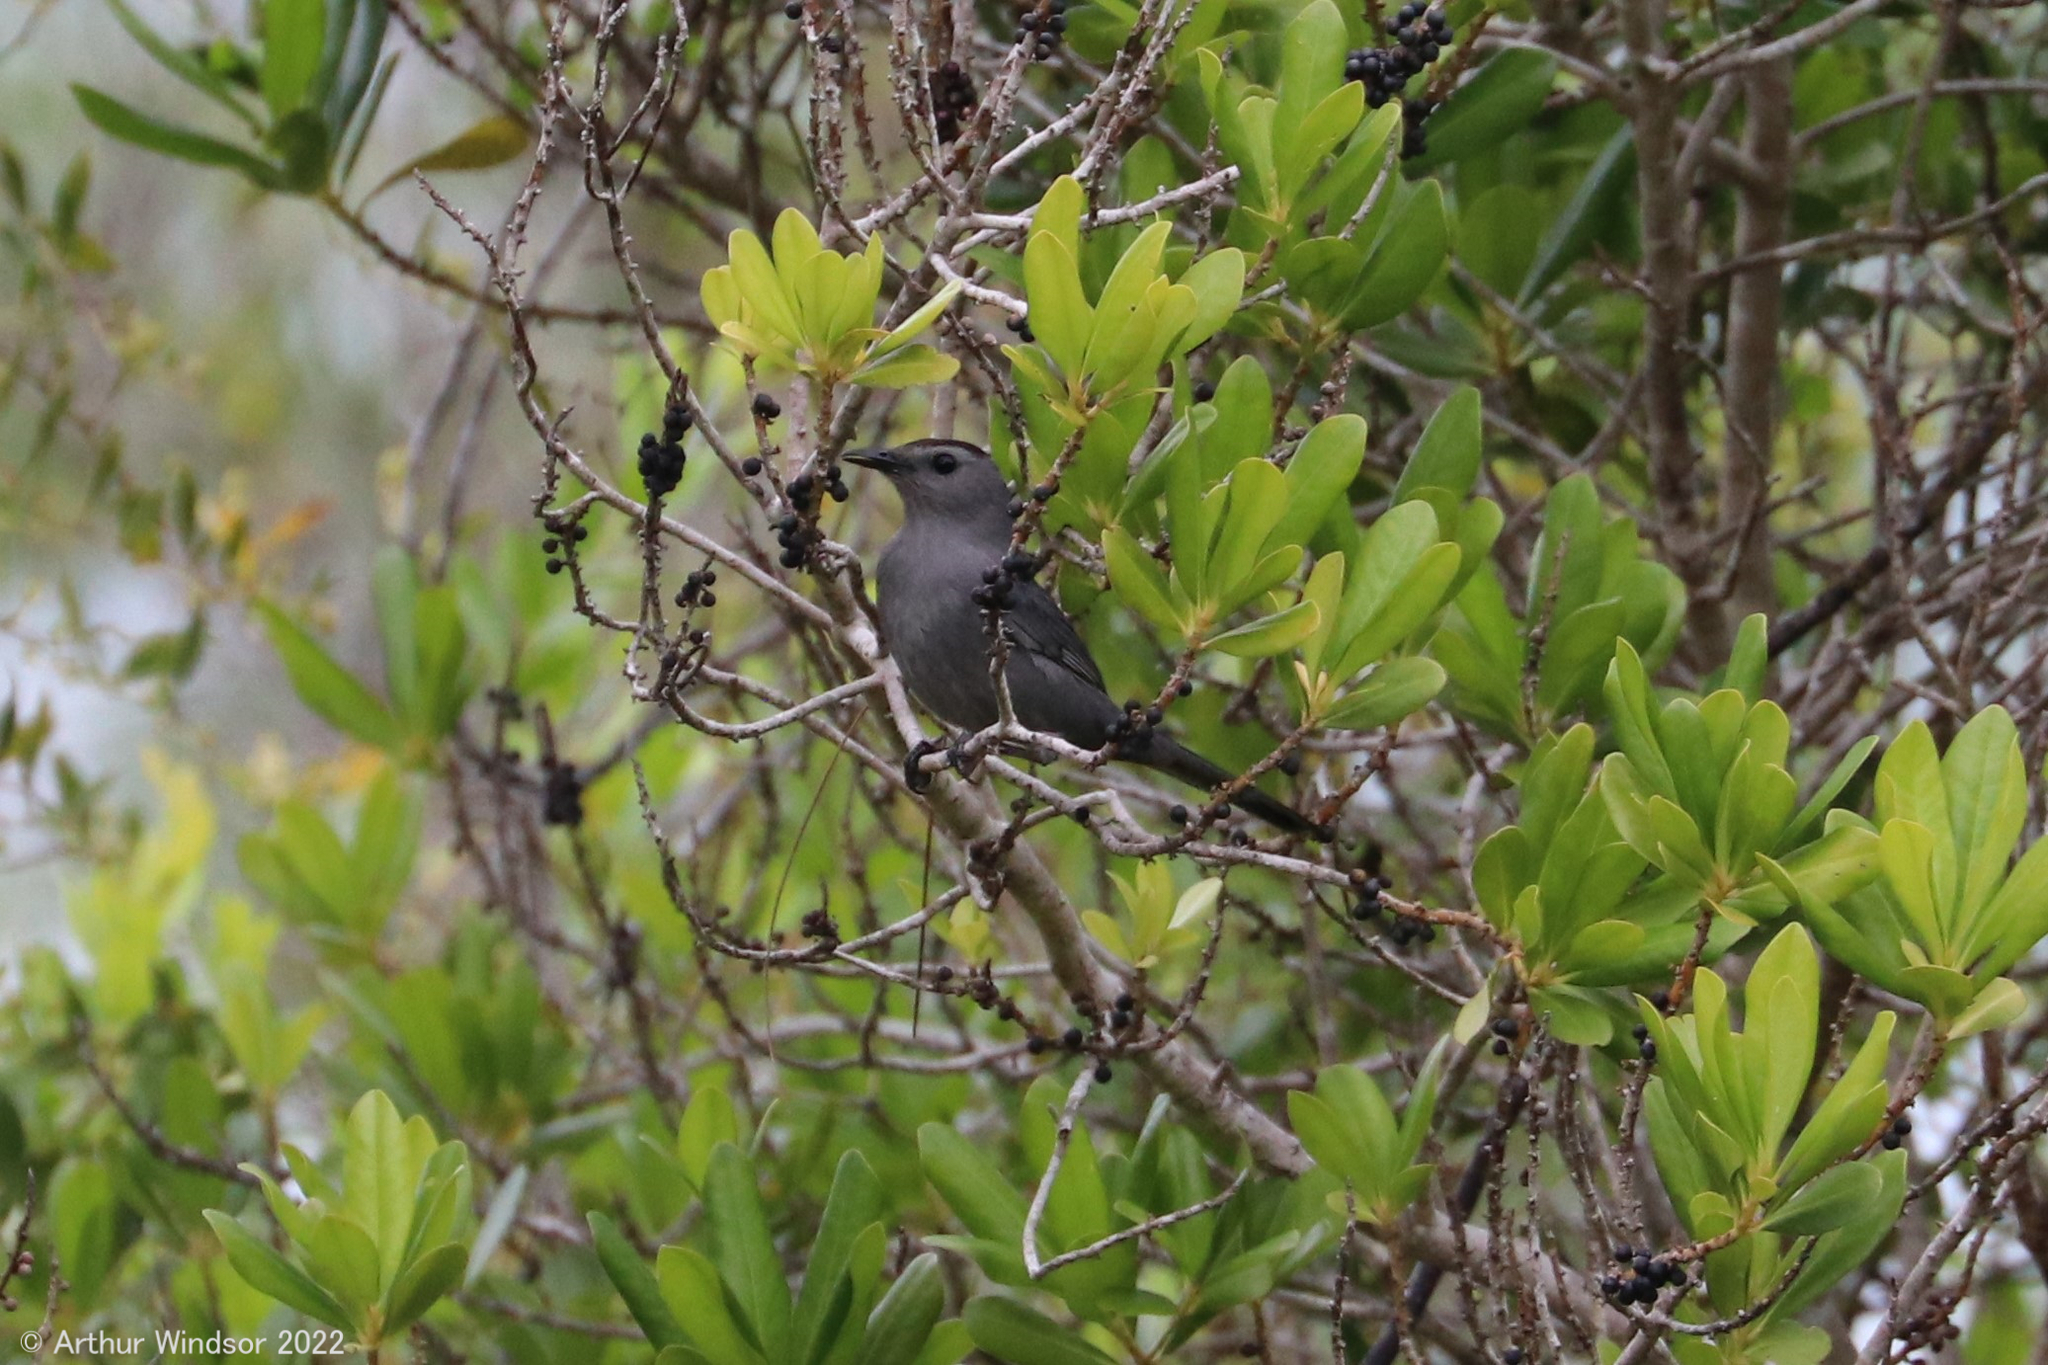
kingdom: Animalia
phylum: Chordata
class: Aves
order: Passeriformes
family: Mimidae
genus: Dumetella
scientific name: Dumetella carolinensis
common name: Gray catbird
